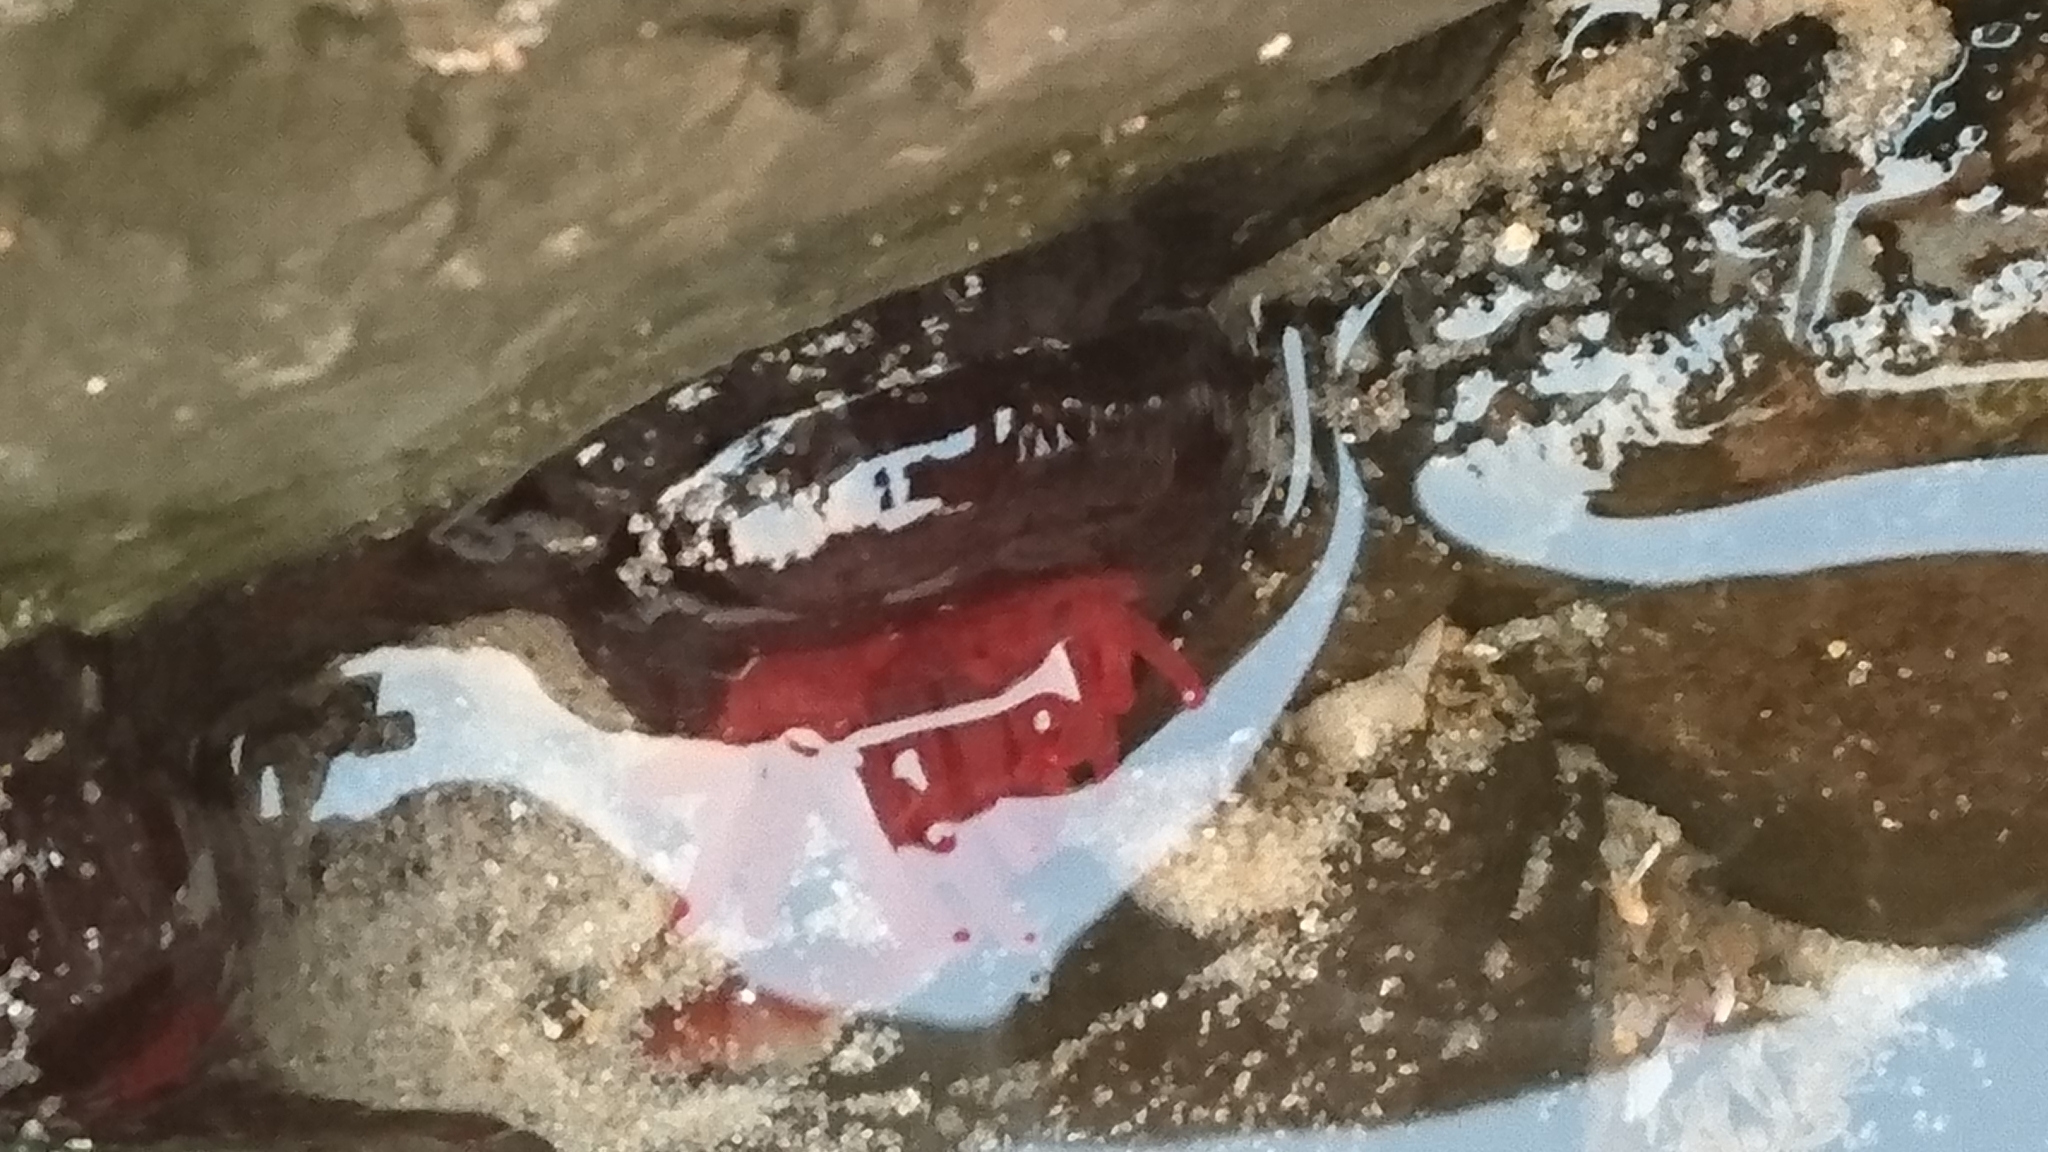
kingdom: Animalia
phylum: Cnidaria
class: Anthozoa
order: Actiniaria
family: Actiniidae
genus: Actinia
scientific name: Actinia tenebrosa
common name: Waratah anemone
